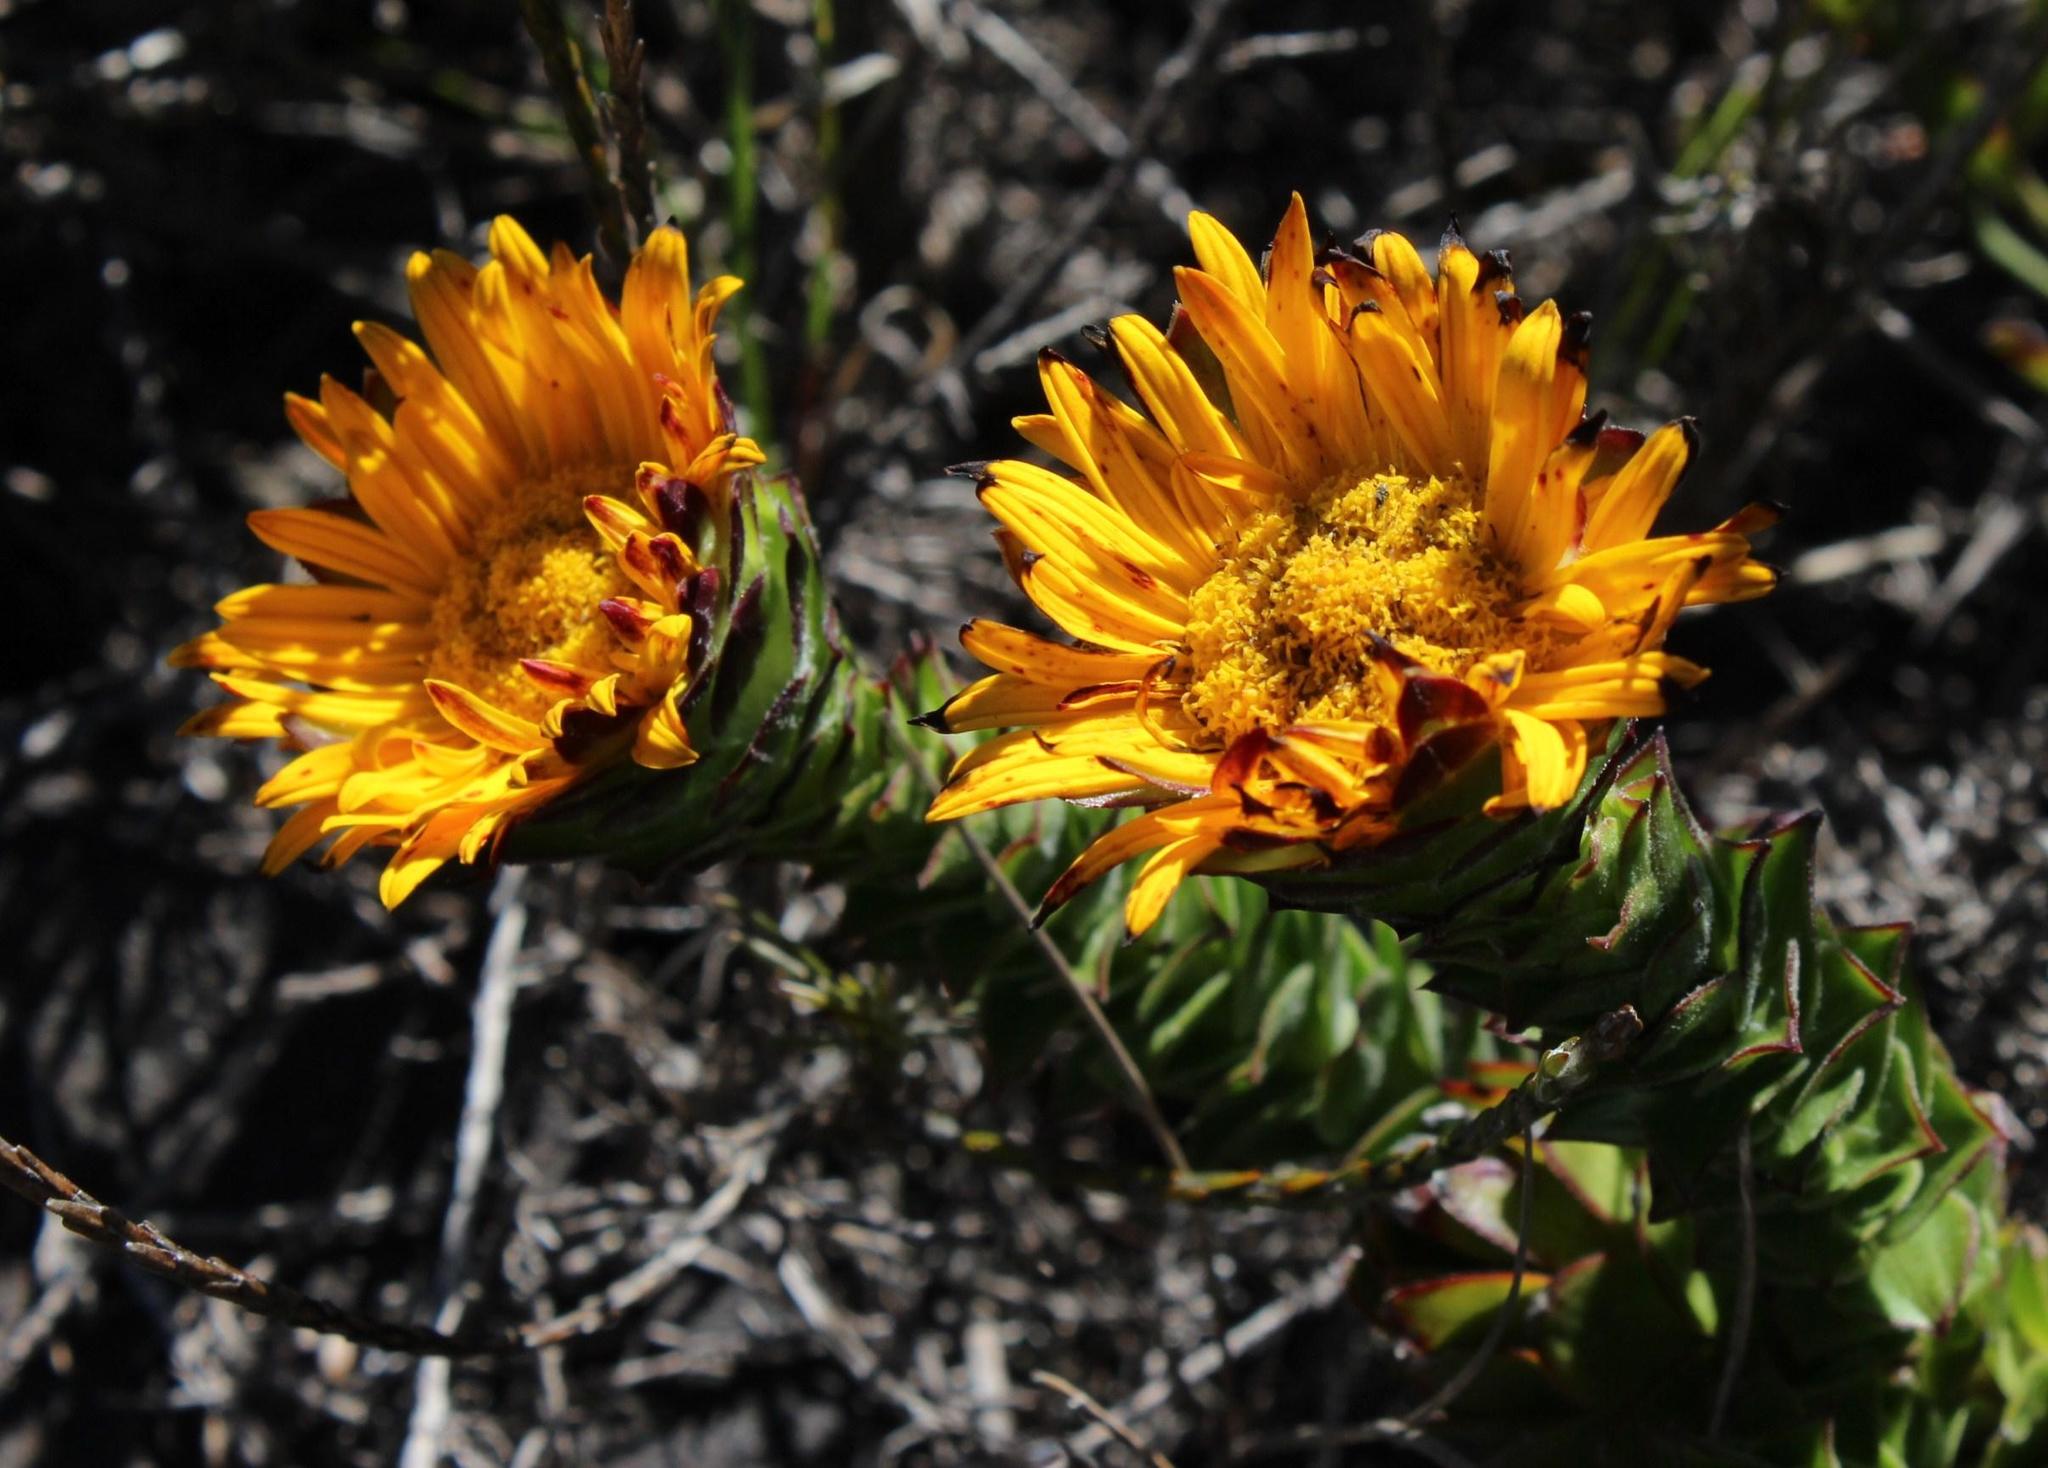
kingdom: Plantae
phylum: Tracheophyta
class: Magnoliopsida
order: Asterales
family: Asteraceae
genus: Oedera
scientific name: Oedera imbricata
